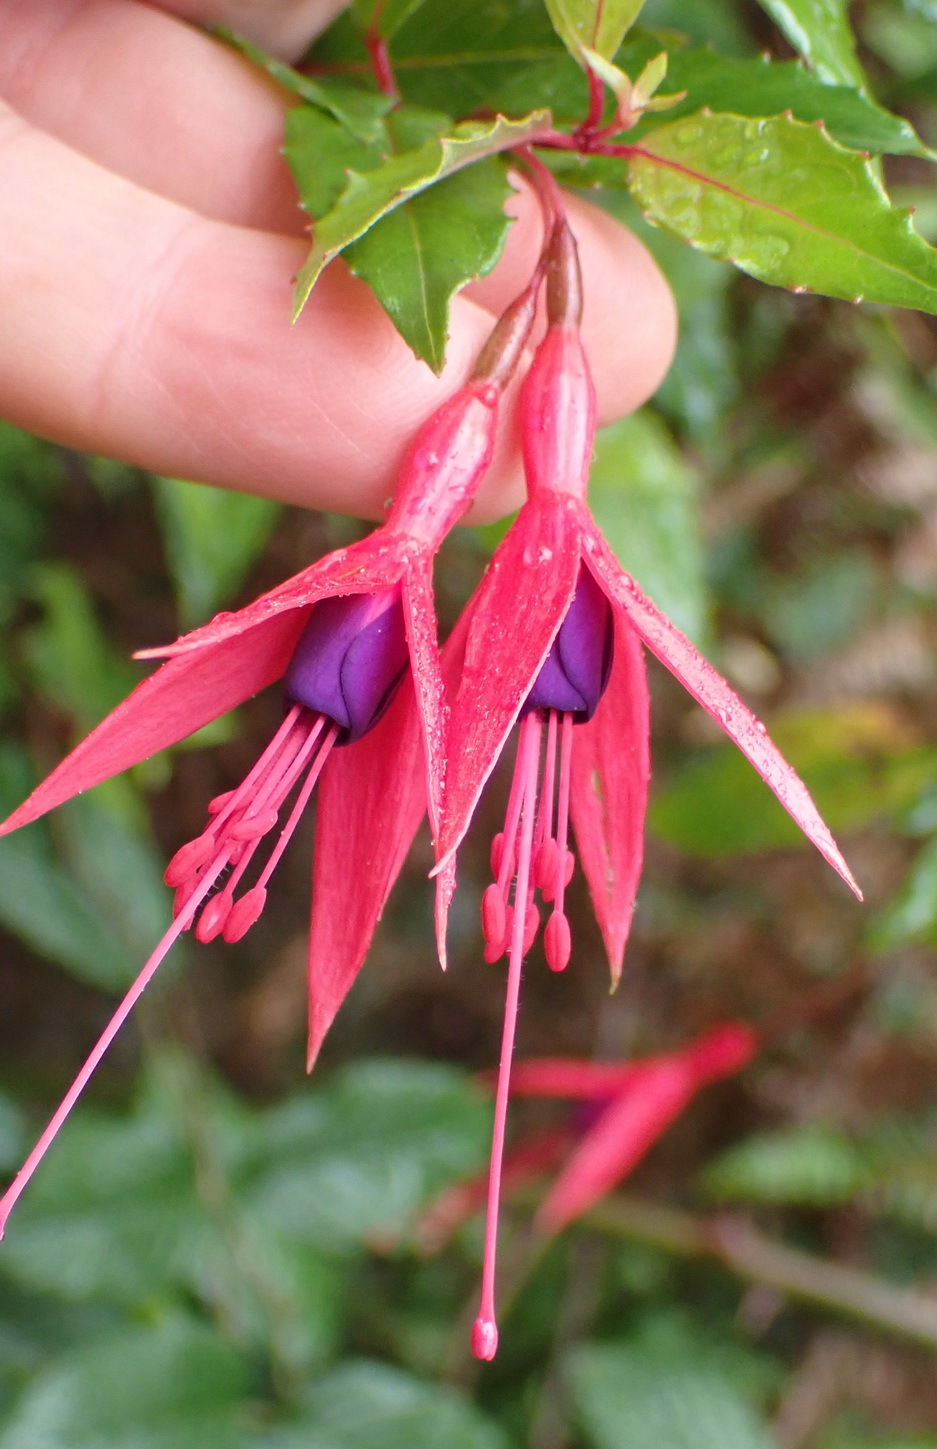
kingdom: Plantae
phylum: Tracheophyta
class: Magnoliopsida
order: Myrtales
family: Onagraceae
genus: Fuchsia
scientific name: Fuchsia regia
